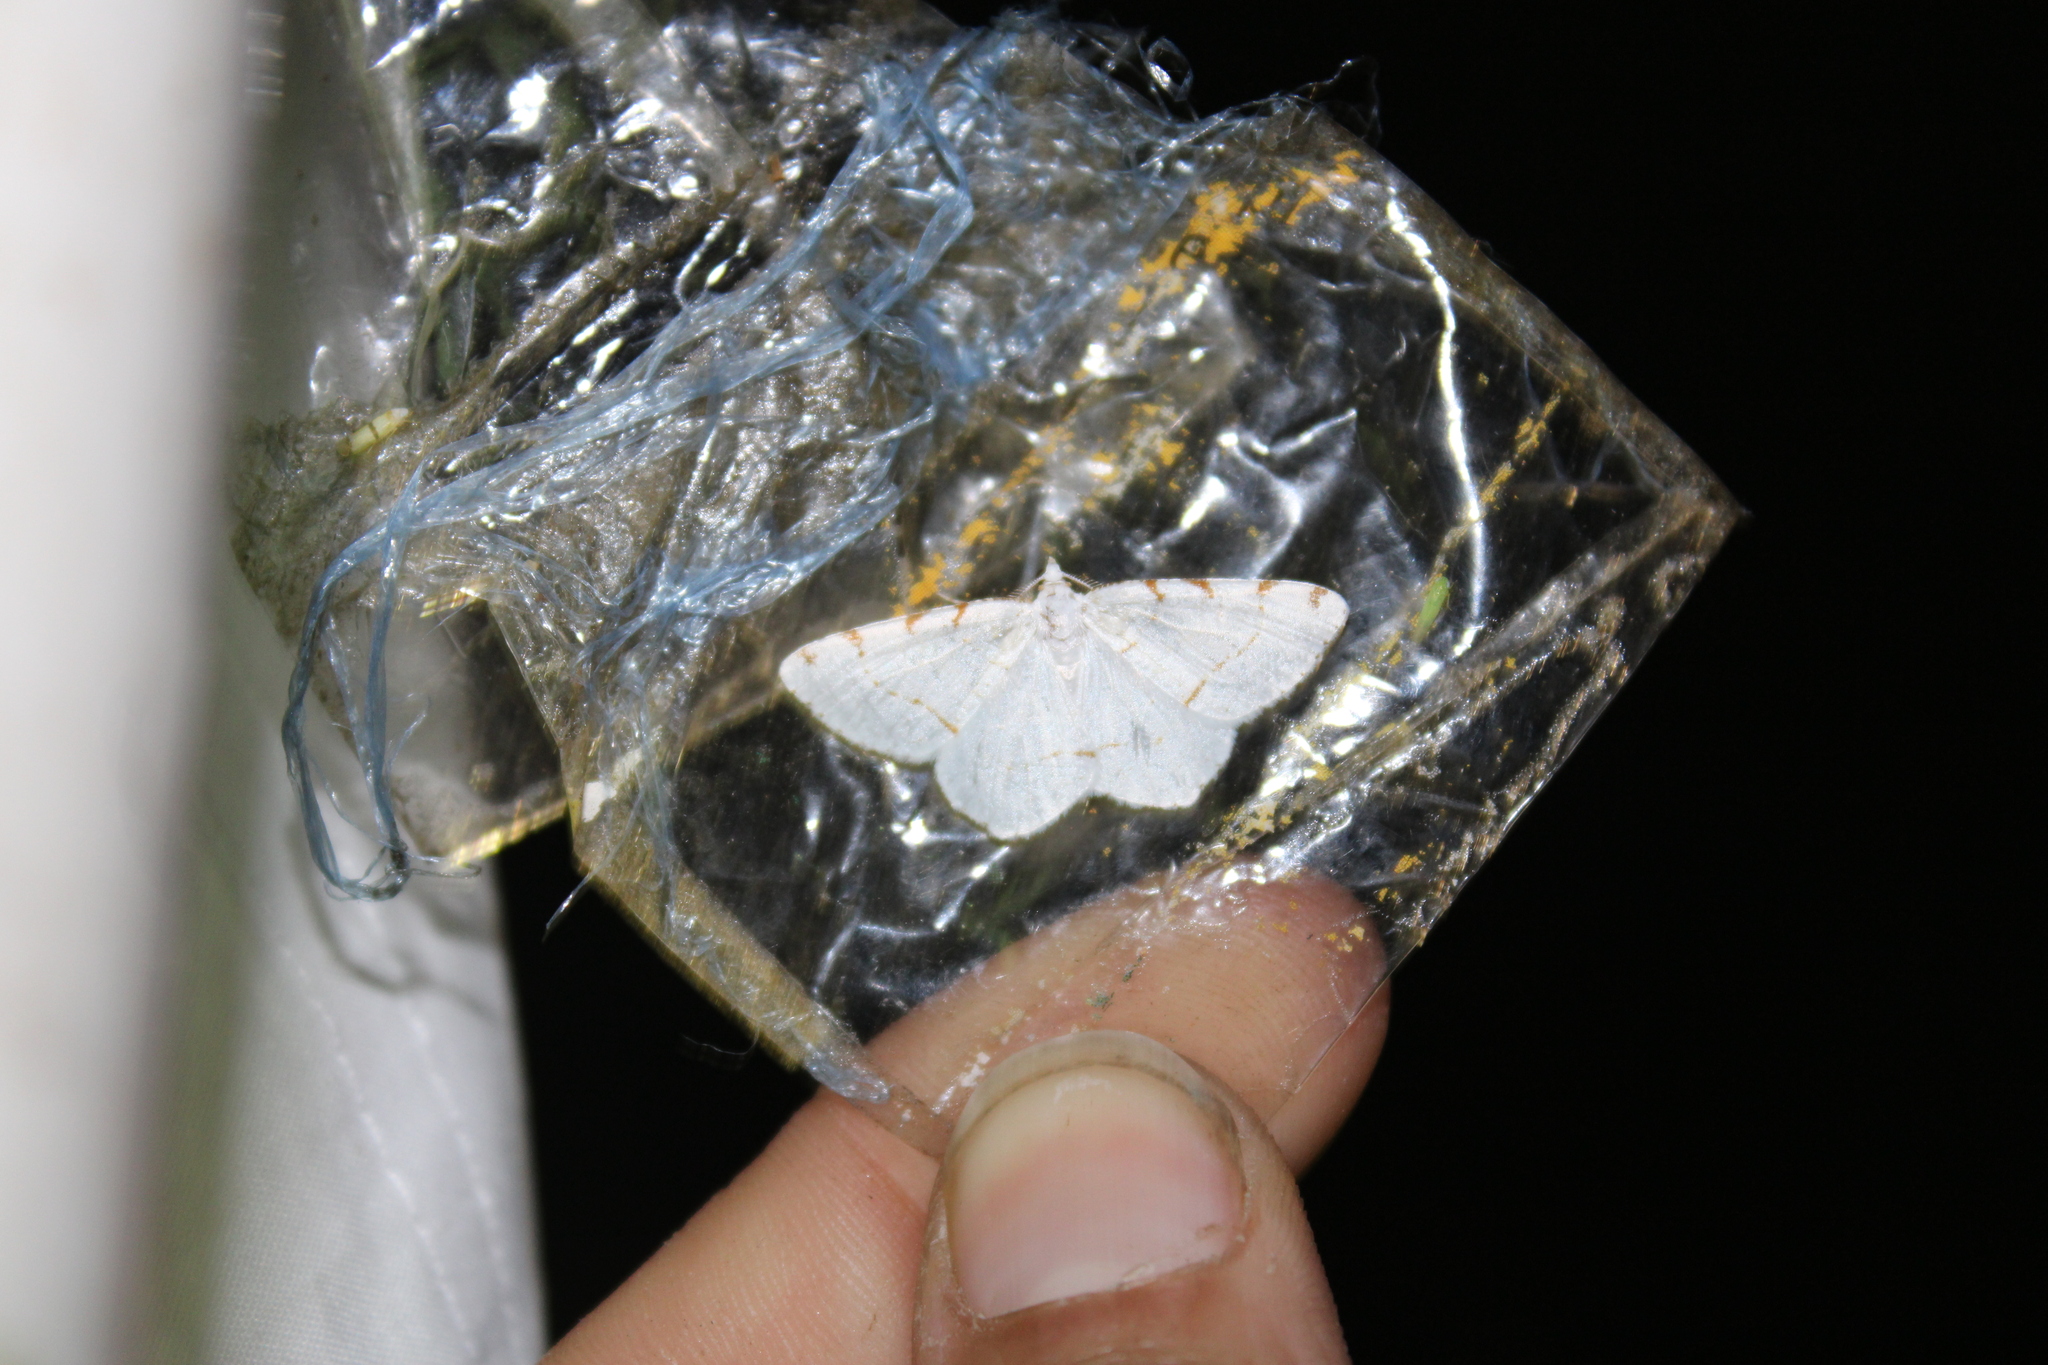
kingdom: Animalia
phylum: Arthropoda
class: Insecta
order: Lepidoptera
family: Geometridae
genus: Macaria
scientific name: Macaria pustularia
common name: Lesser maple spanworm moth
